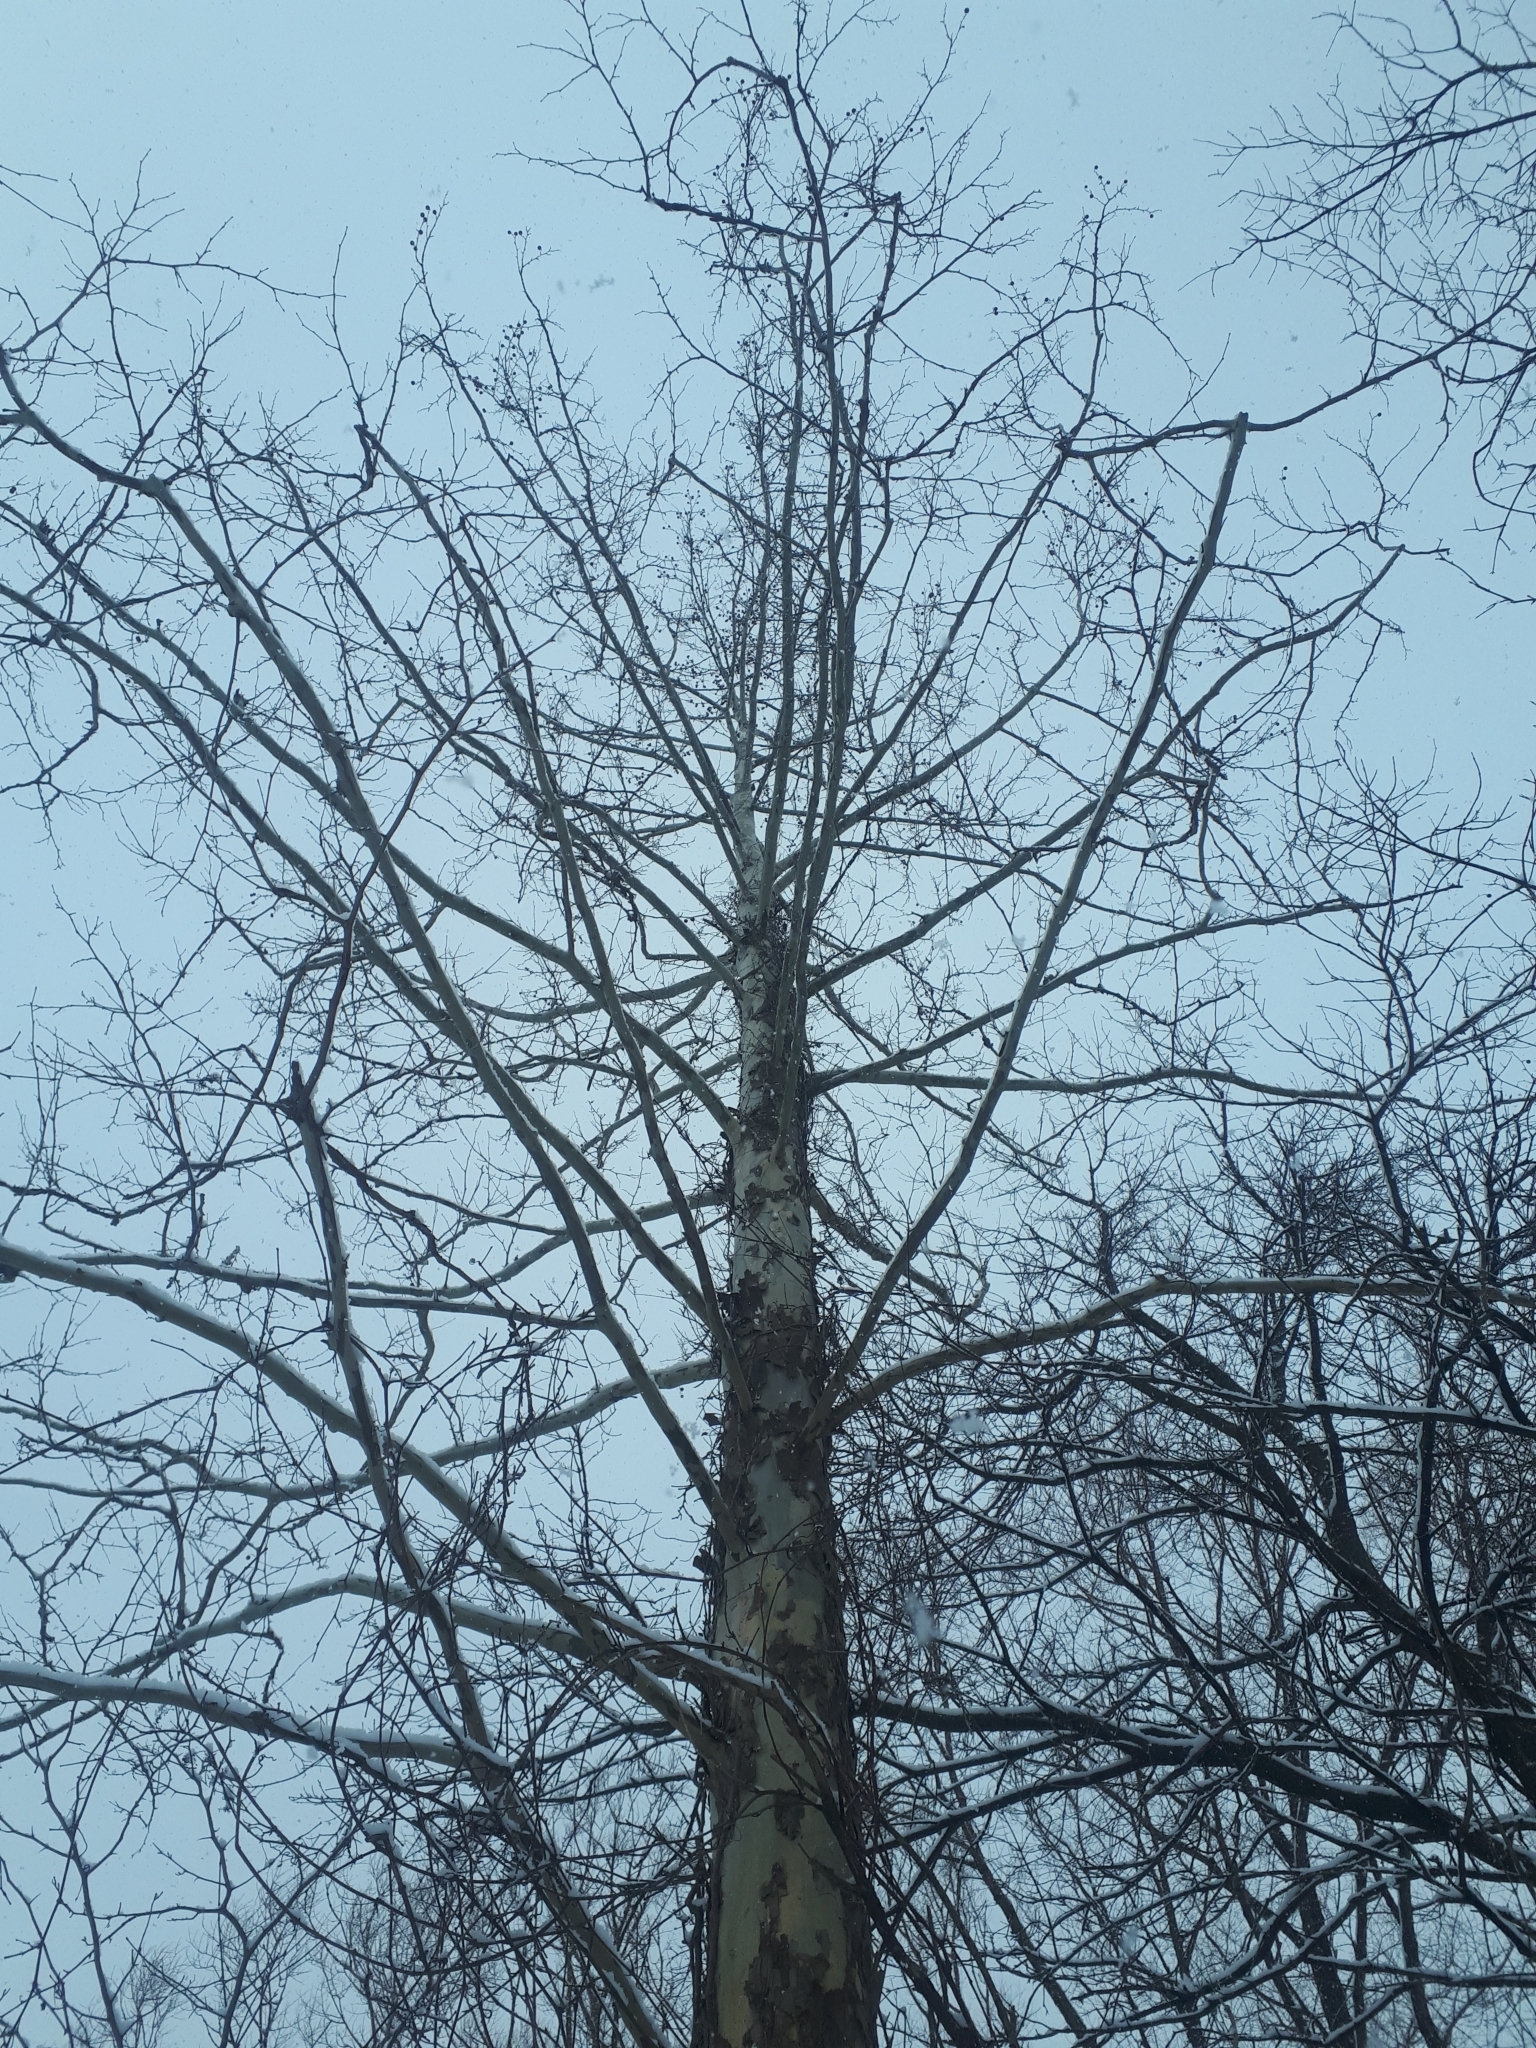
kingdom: Plantae
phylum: Tracheophyta
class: Magnoliopsida
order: Proteales
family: Platanaceae
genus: Platanus
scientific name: Platanus occidentalis
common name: American sycamore
